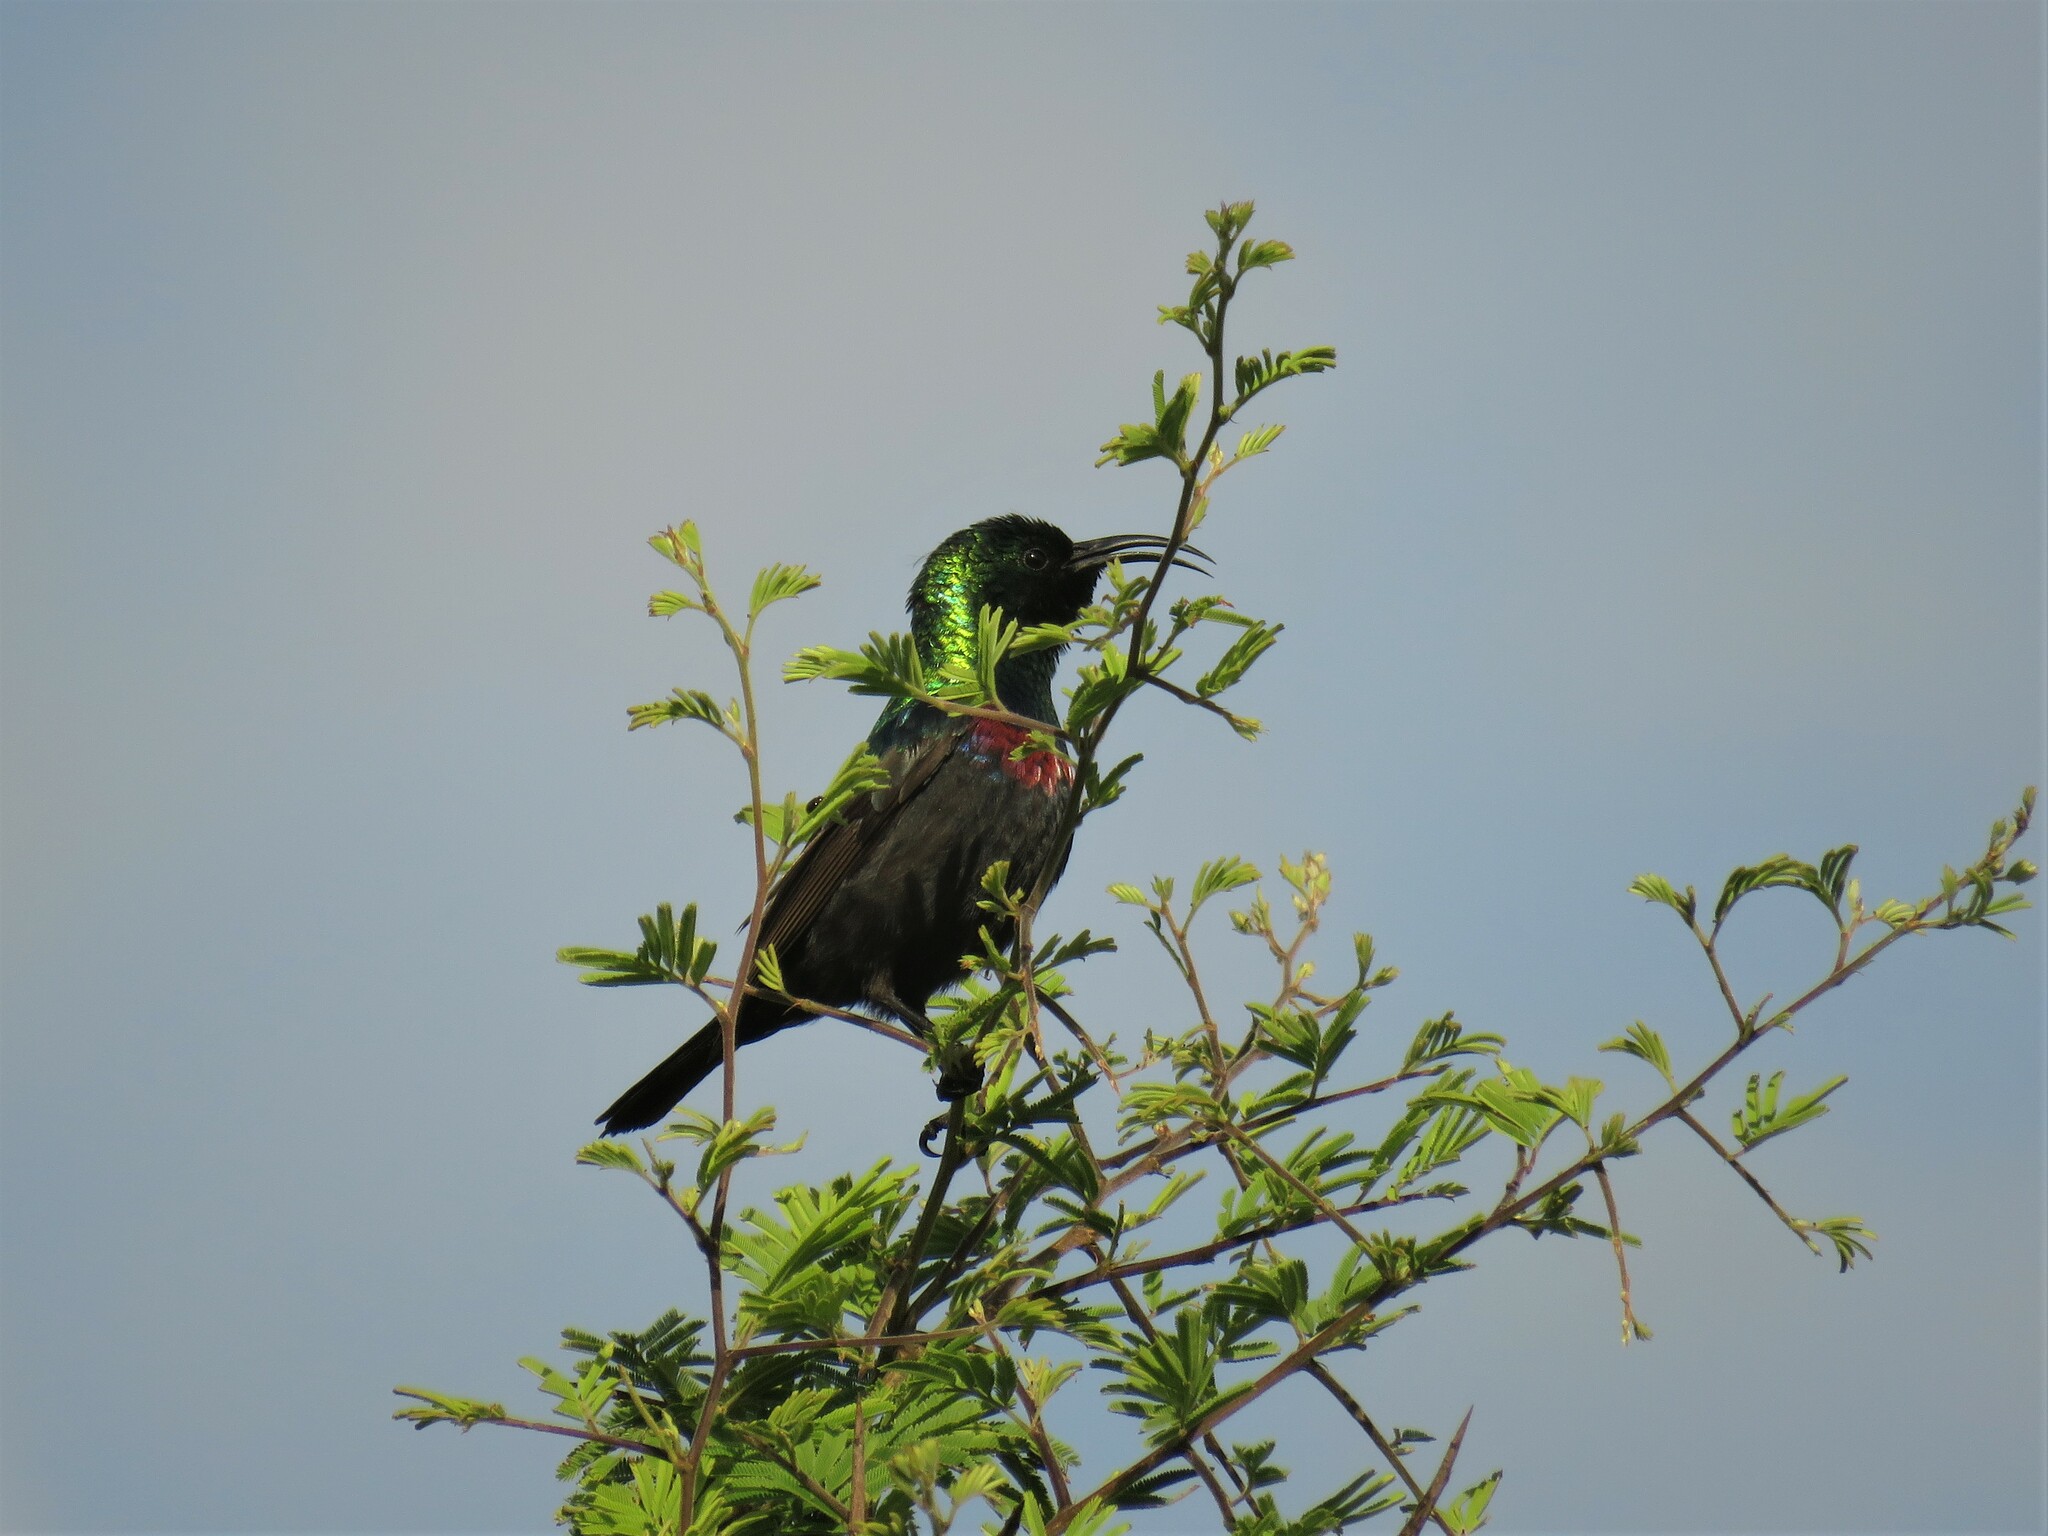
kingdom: Animalia
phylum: Chordata
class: Aves
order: Passeriformes
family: Nectariniidae
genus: Cinnyris
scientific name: Cinnyris mariquensis
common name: Marico sunbird
